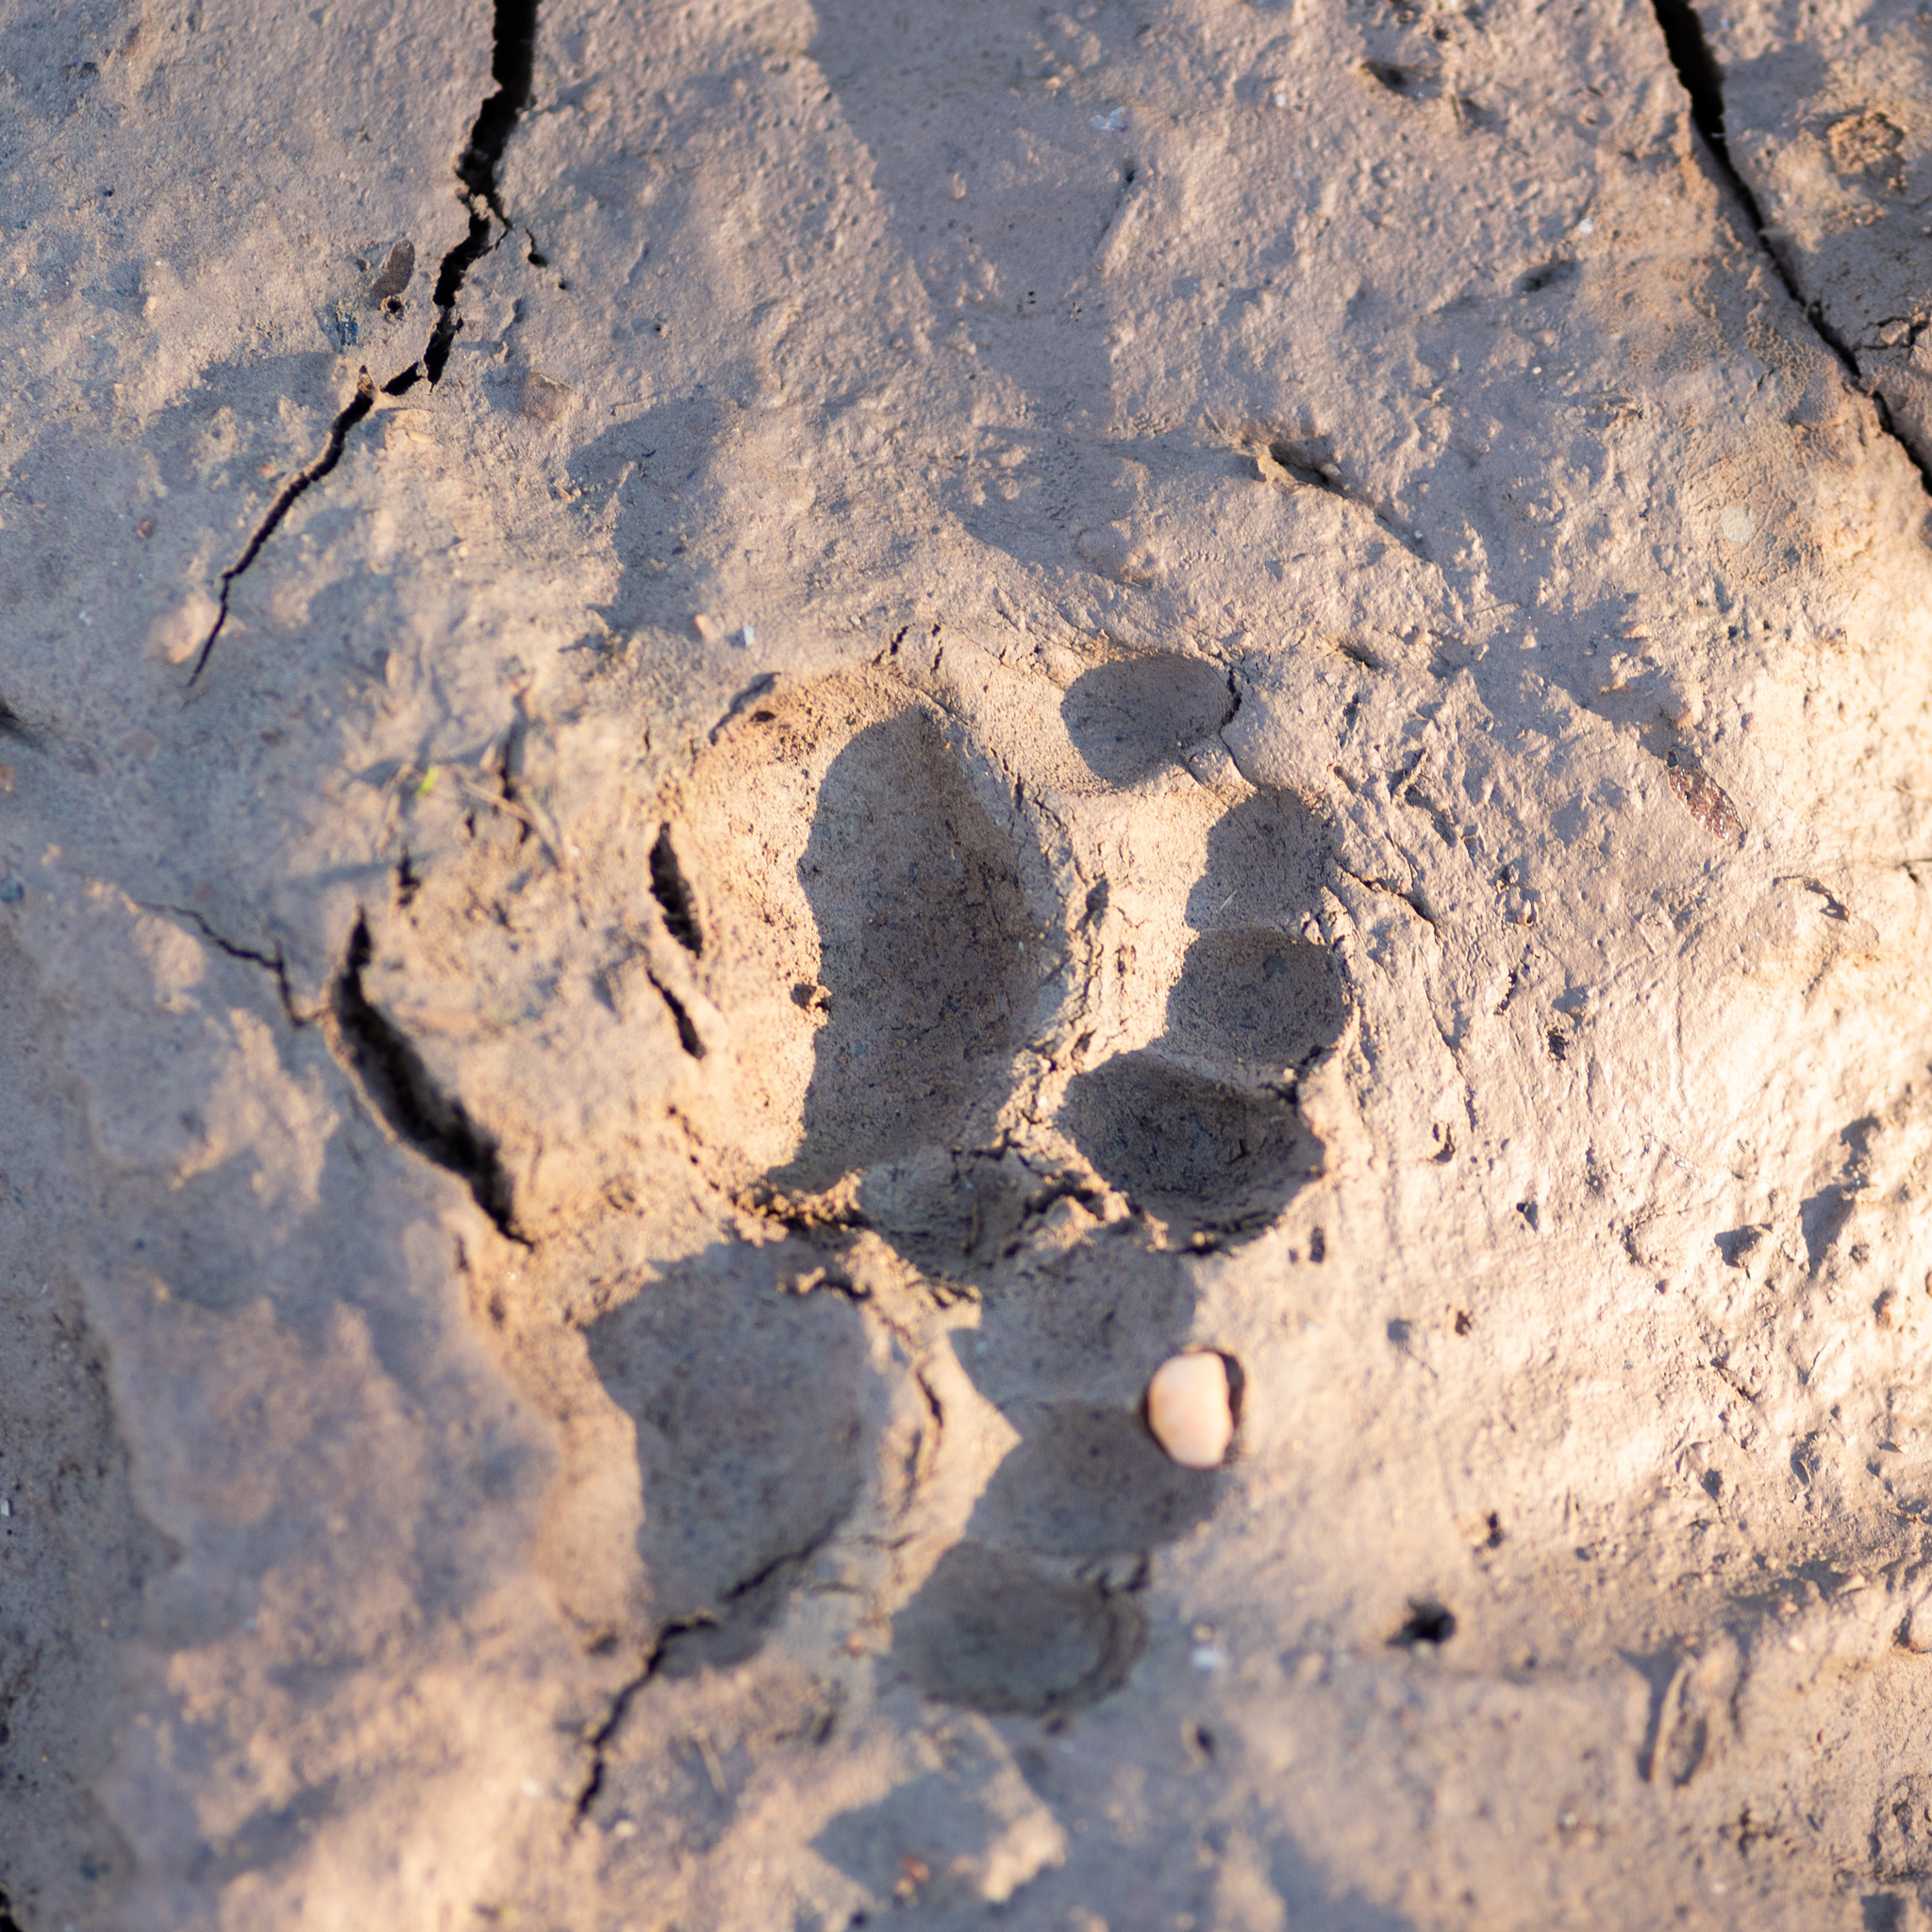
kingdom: Animalia
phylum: Chordata
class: Mammalia
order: Carnivora
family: Mustelidae
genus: Meles
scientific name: Meles meles
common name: Eurasian badger
